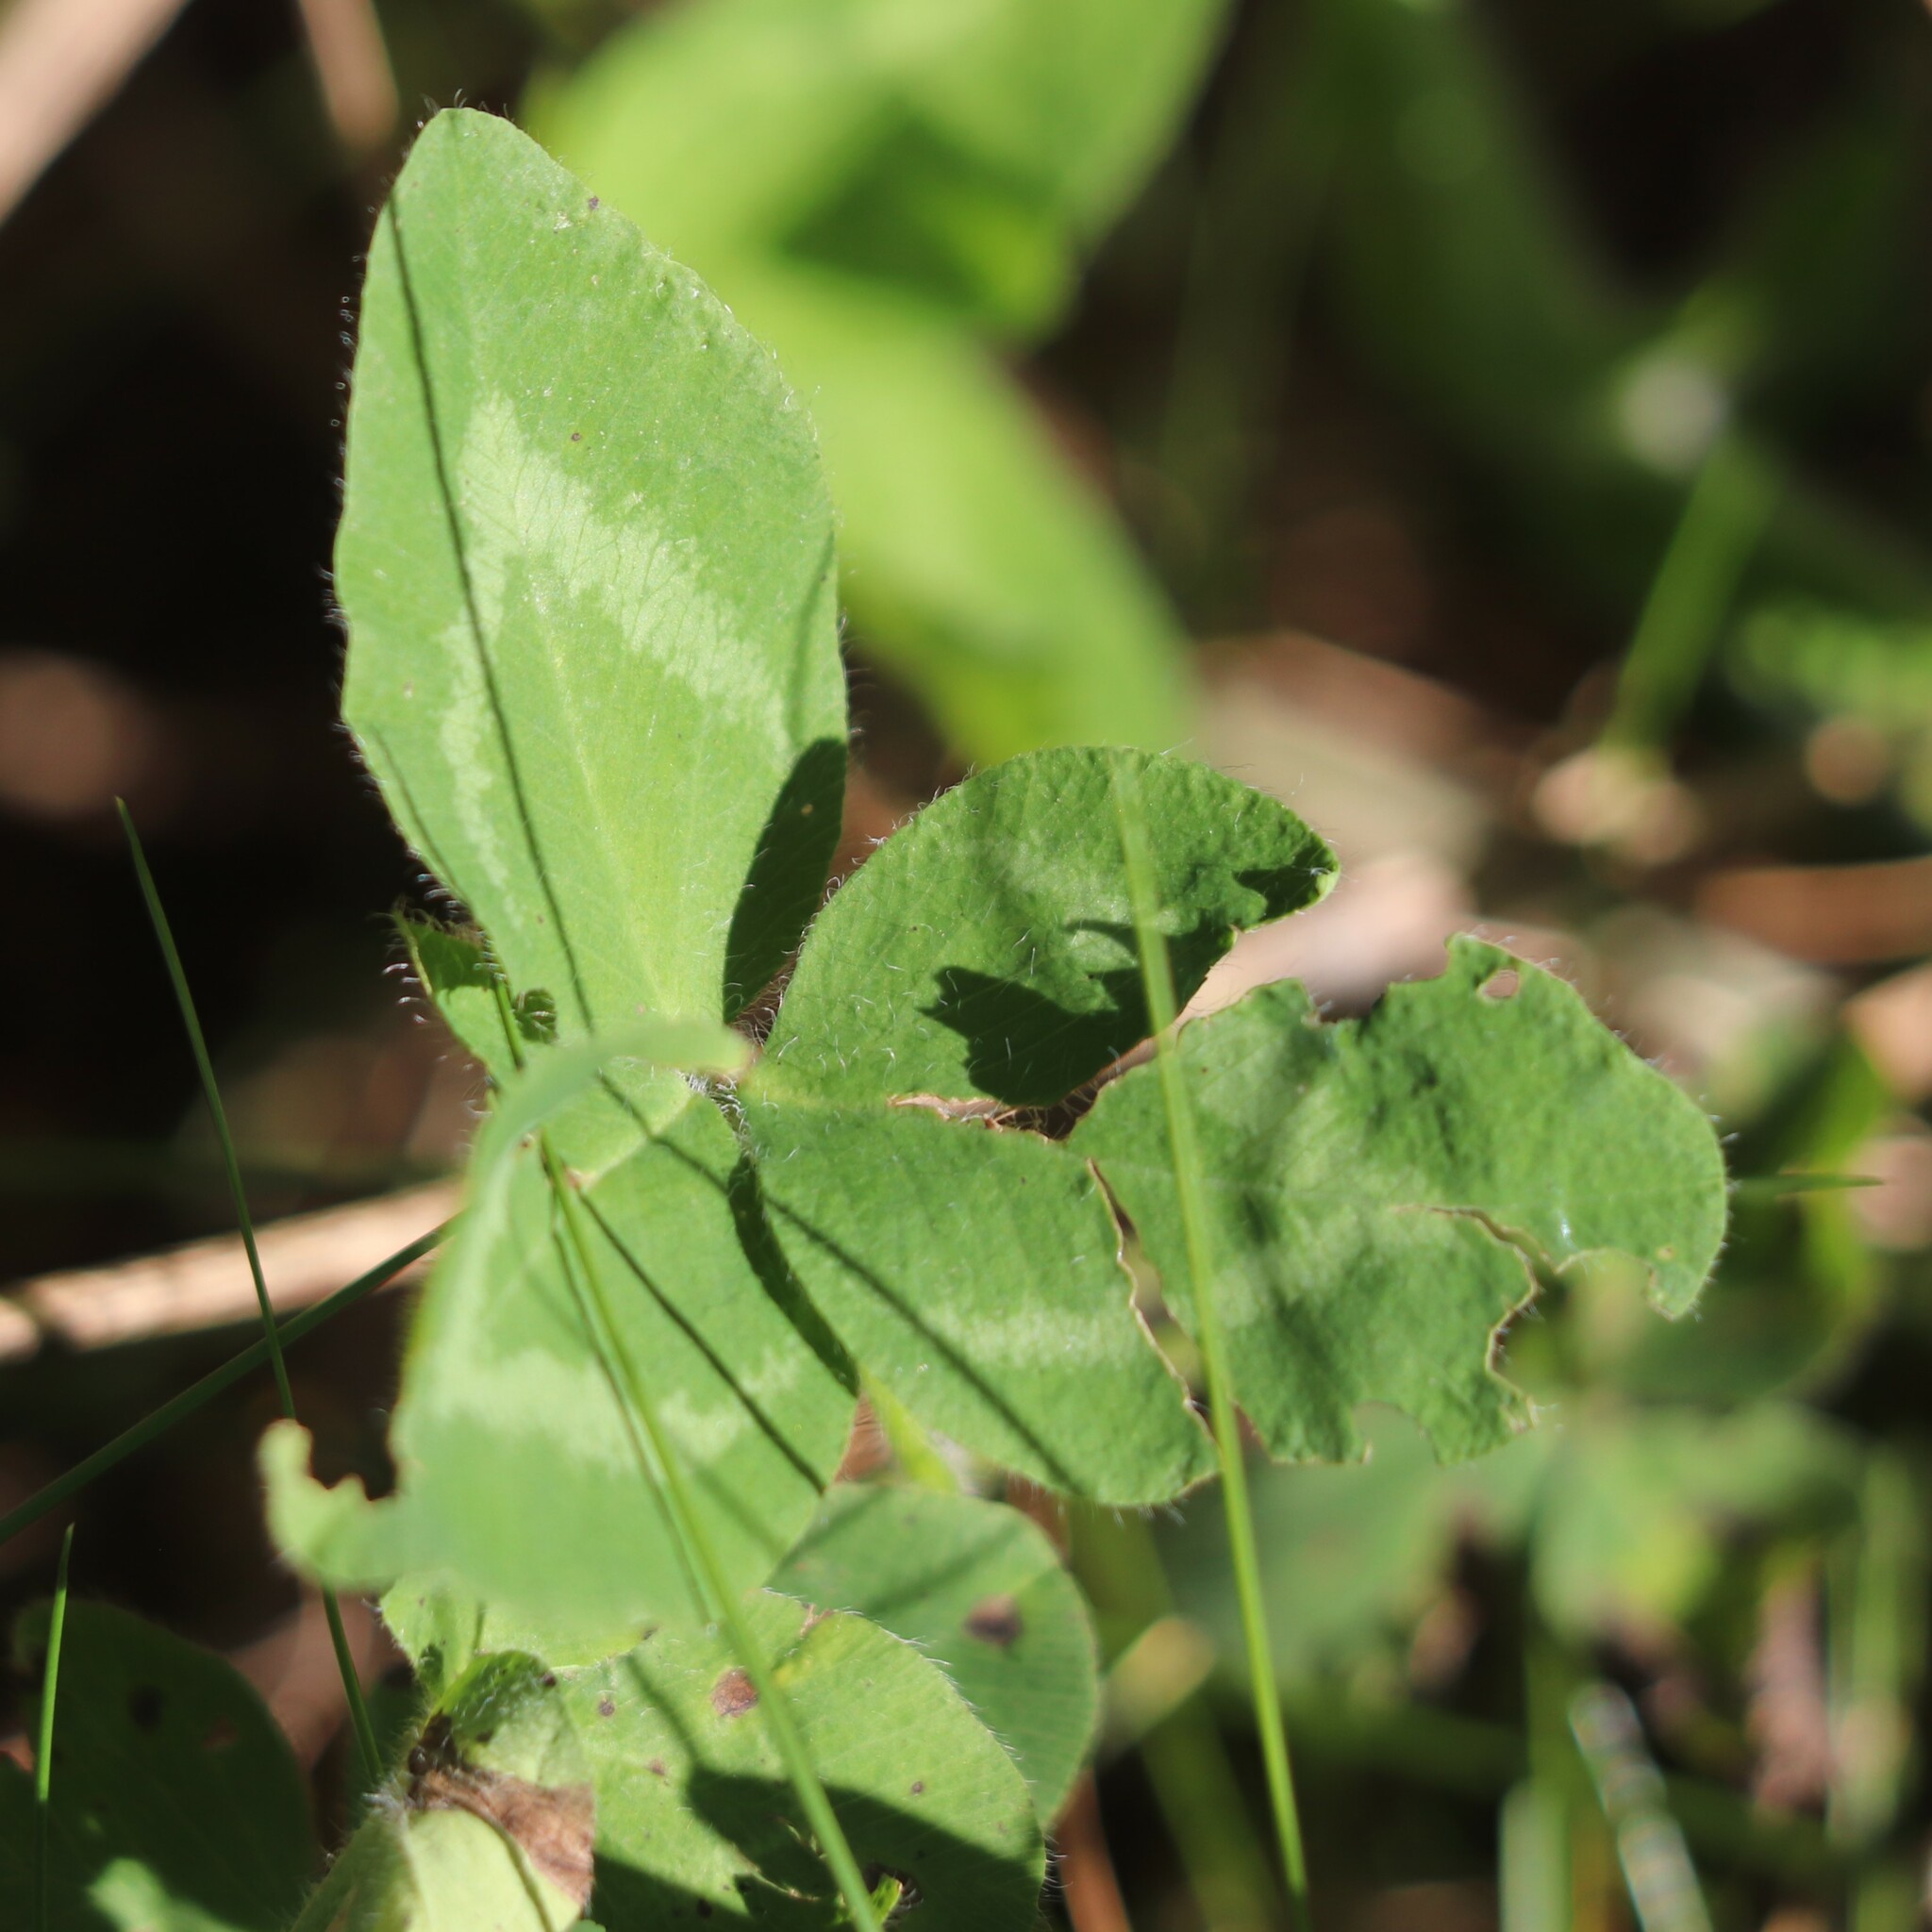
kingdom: Plantae
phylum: Tracheophyta
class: Magnoliopsida
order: Fabales
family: Fabaceae
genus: Trifolium
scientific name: Trifolium pratense
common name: Red clover
